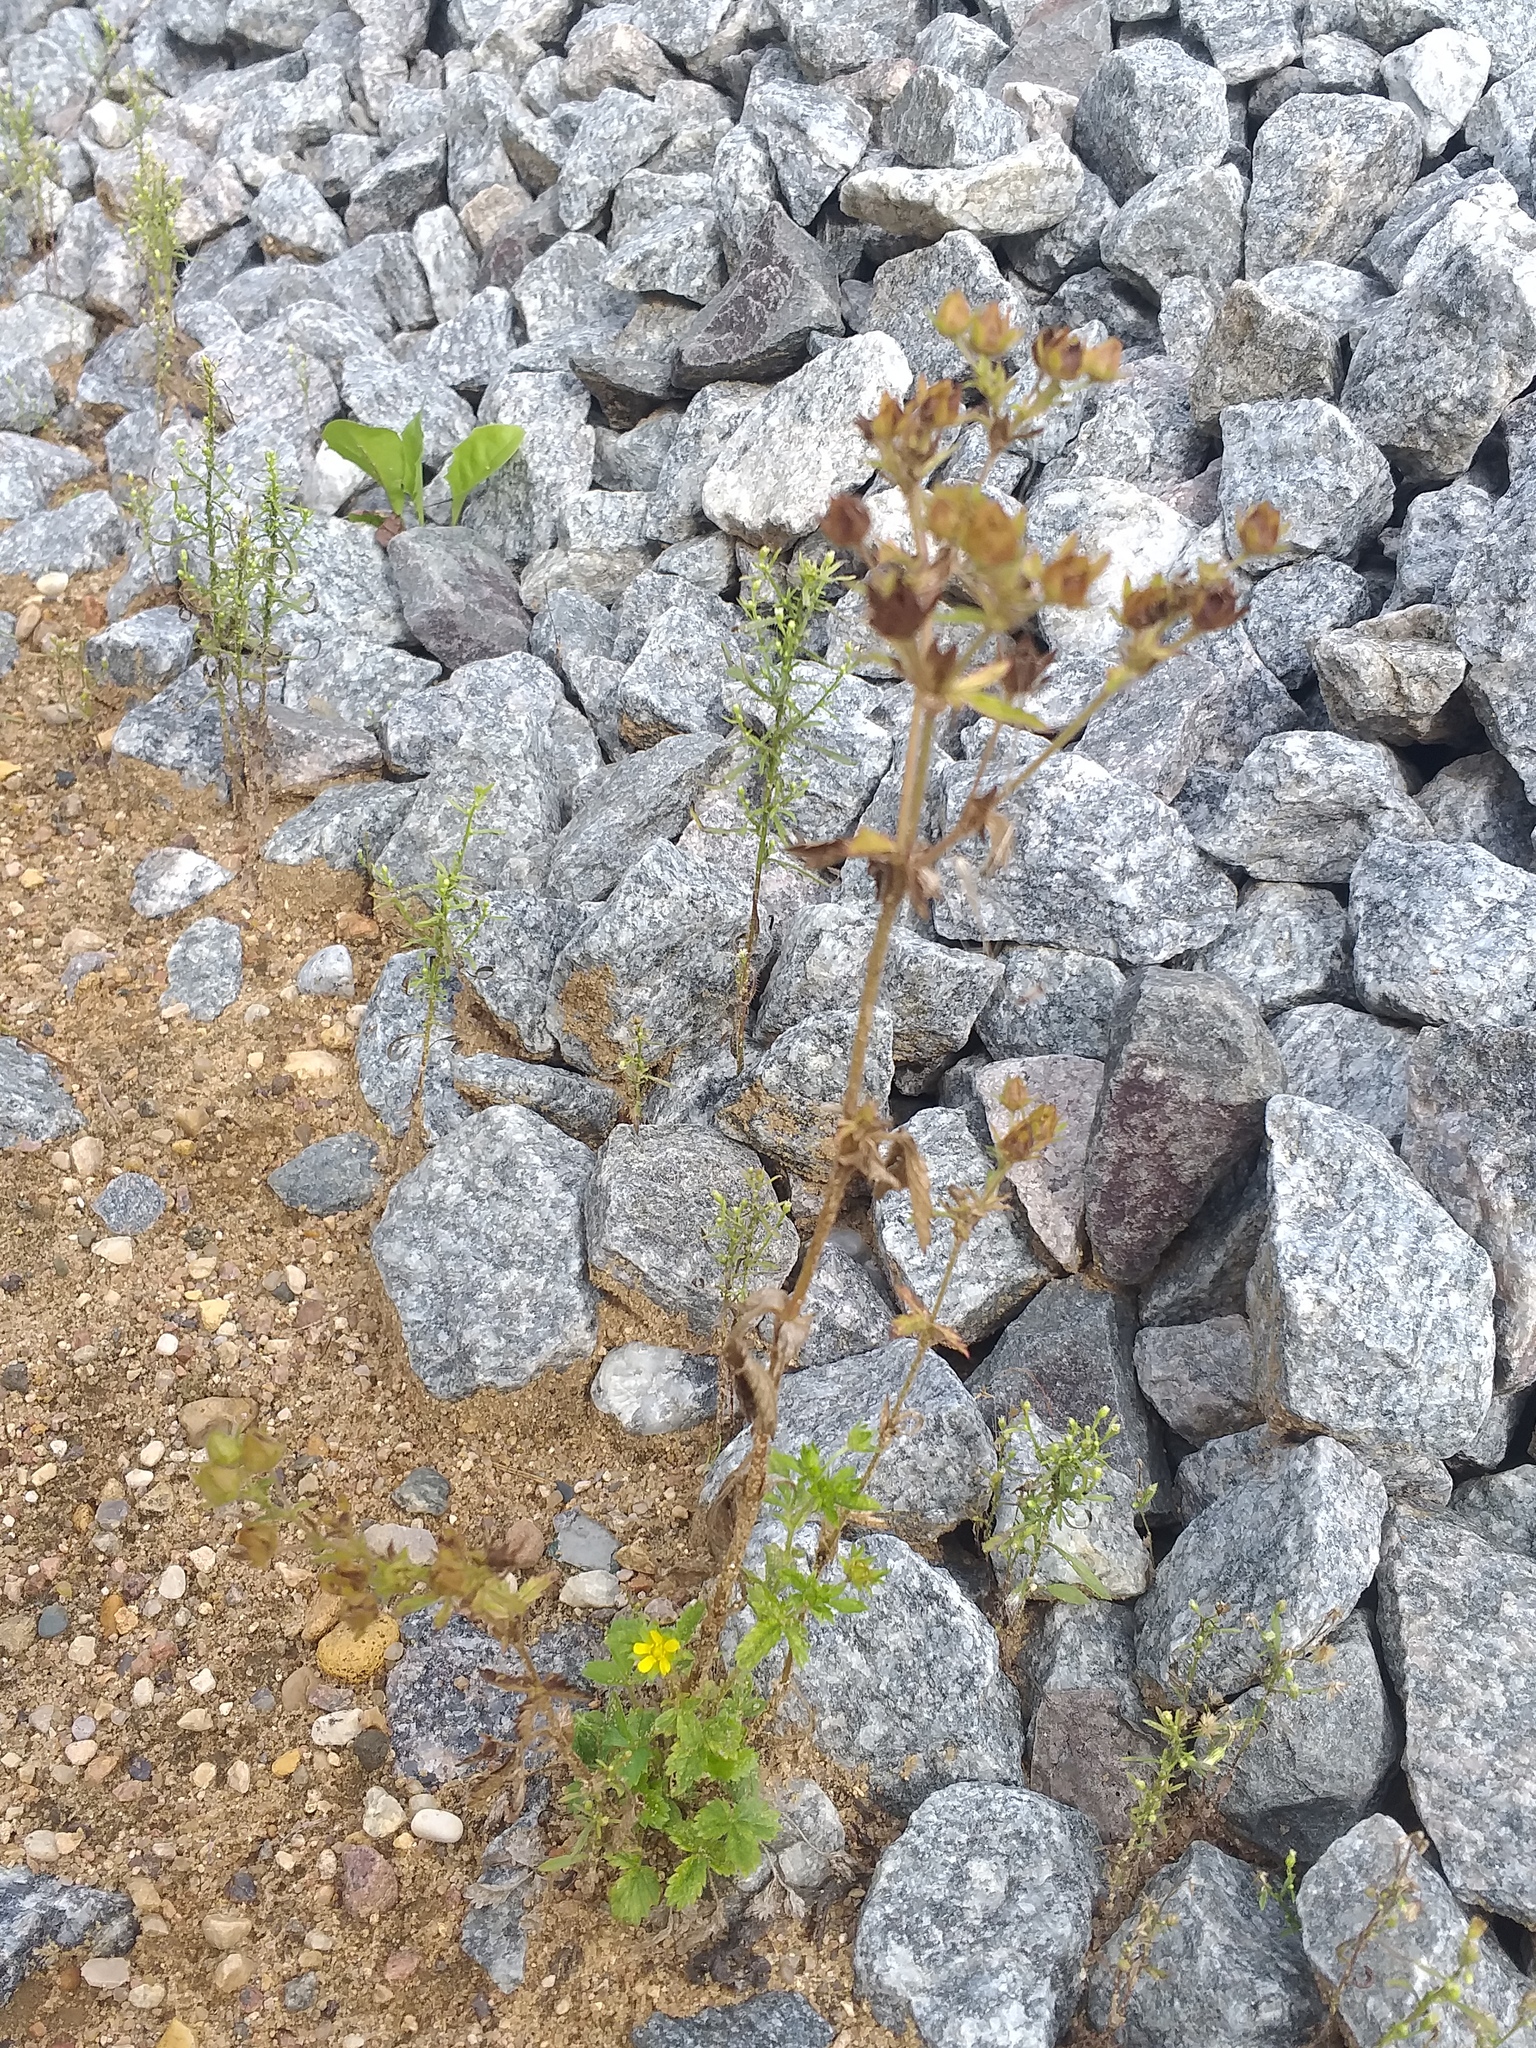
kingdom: Plantae
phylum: Tracheophyta
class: Magnoliopsida
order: Rosales
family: Rosaceae
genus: Potentilla
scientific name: Potentilla norvegica
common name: Ternate-leaved cinquefoil
